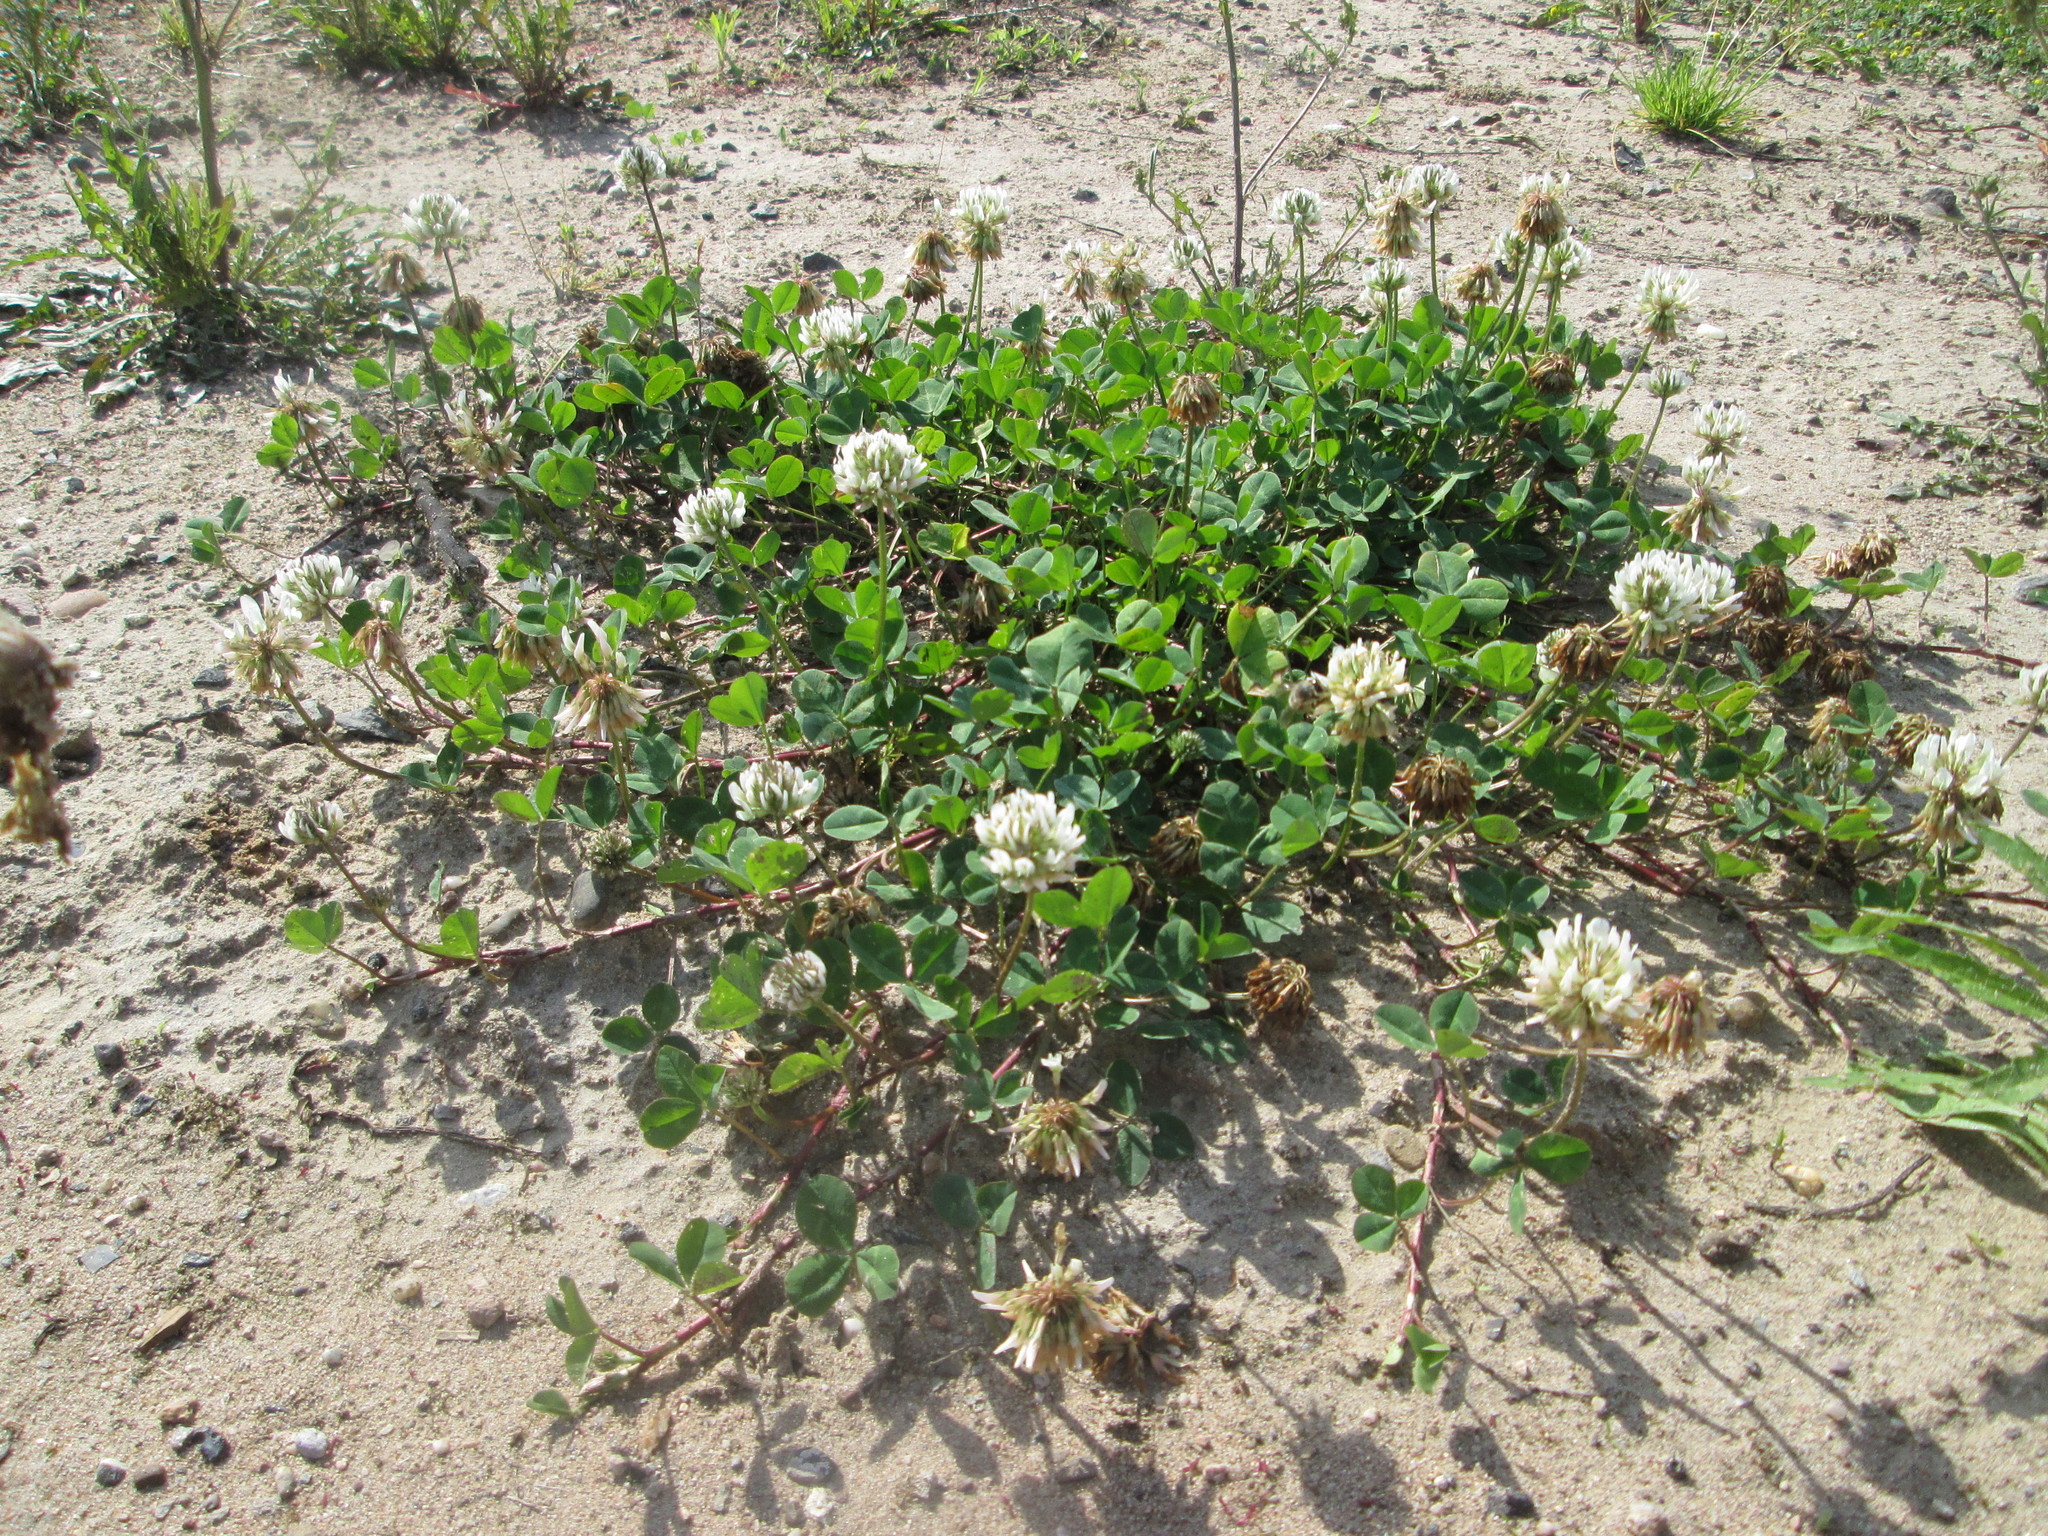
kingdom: Plantae
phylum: Tracheophyta
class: Magnoliopsida
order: Fabales
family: Fabaceae
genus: Trifolium
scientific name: Trifolium repens
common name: White clover
